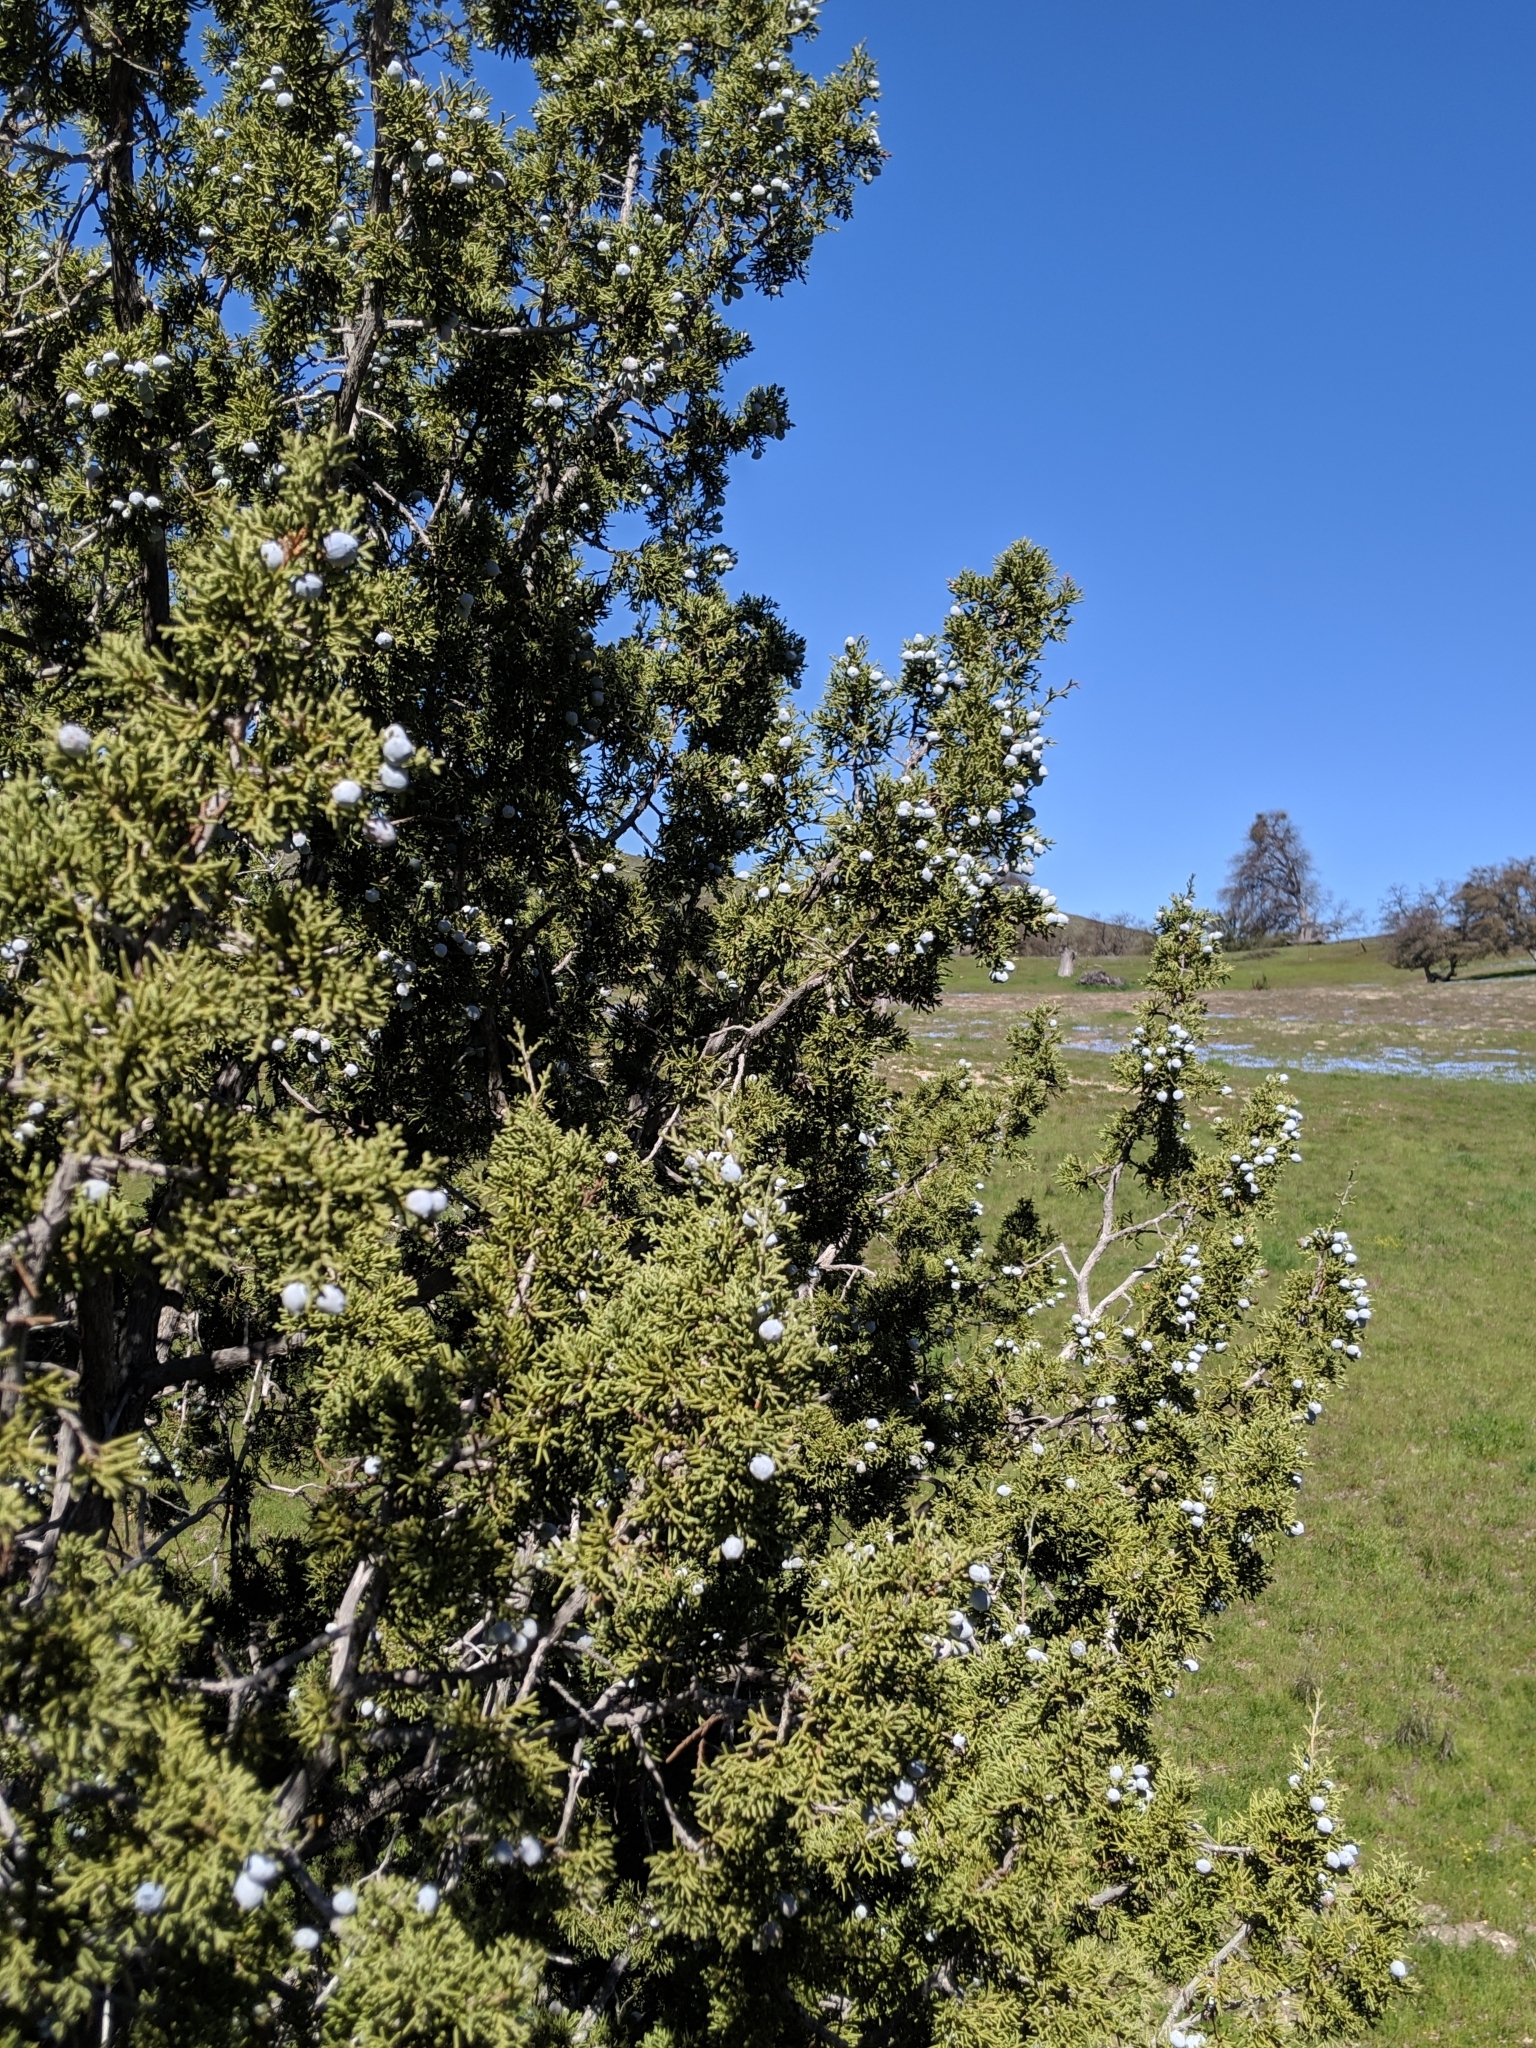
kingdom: Plantae
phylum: Tracheophyta
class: Pinopsida
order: Pinales
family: Cupressaceae
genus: Juniperus
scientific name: Juniperus californica
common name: California juniper
